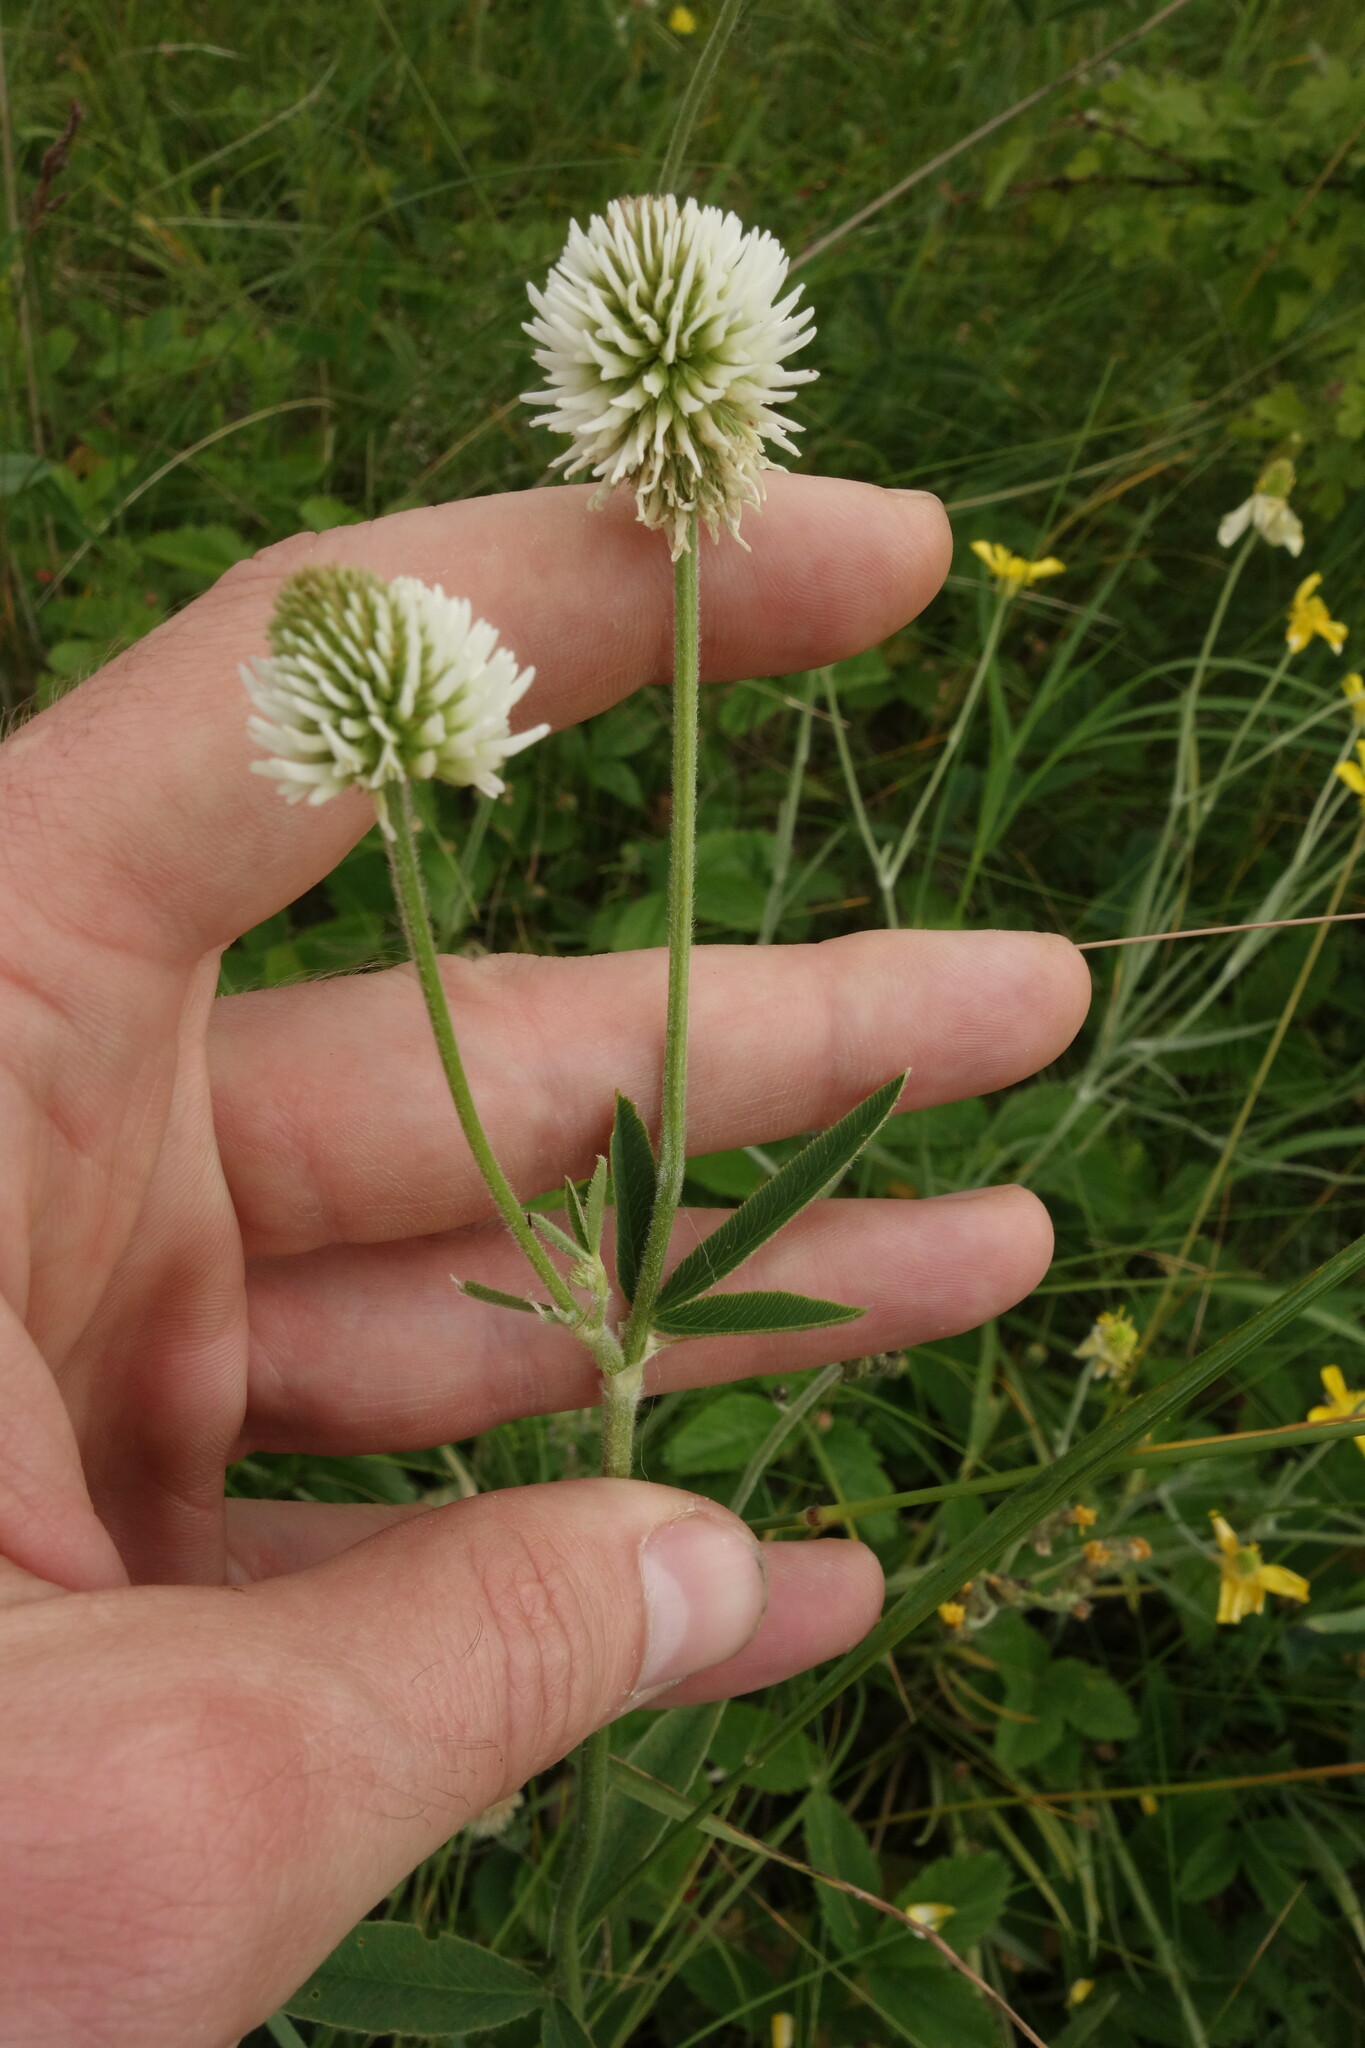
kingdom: Plantae
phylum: Tracheophyta
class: Magnoliopsida
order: Fabales
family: Fabaceae
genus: Trifolium
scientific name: Trifolium montanum
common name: Mountain clover
